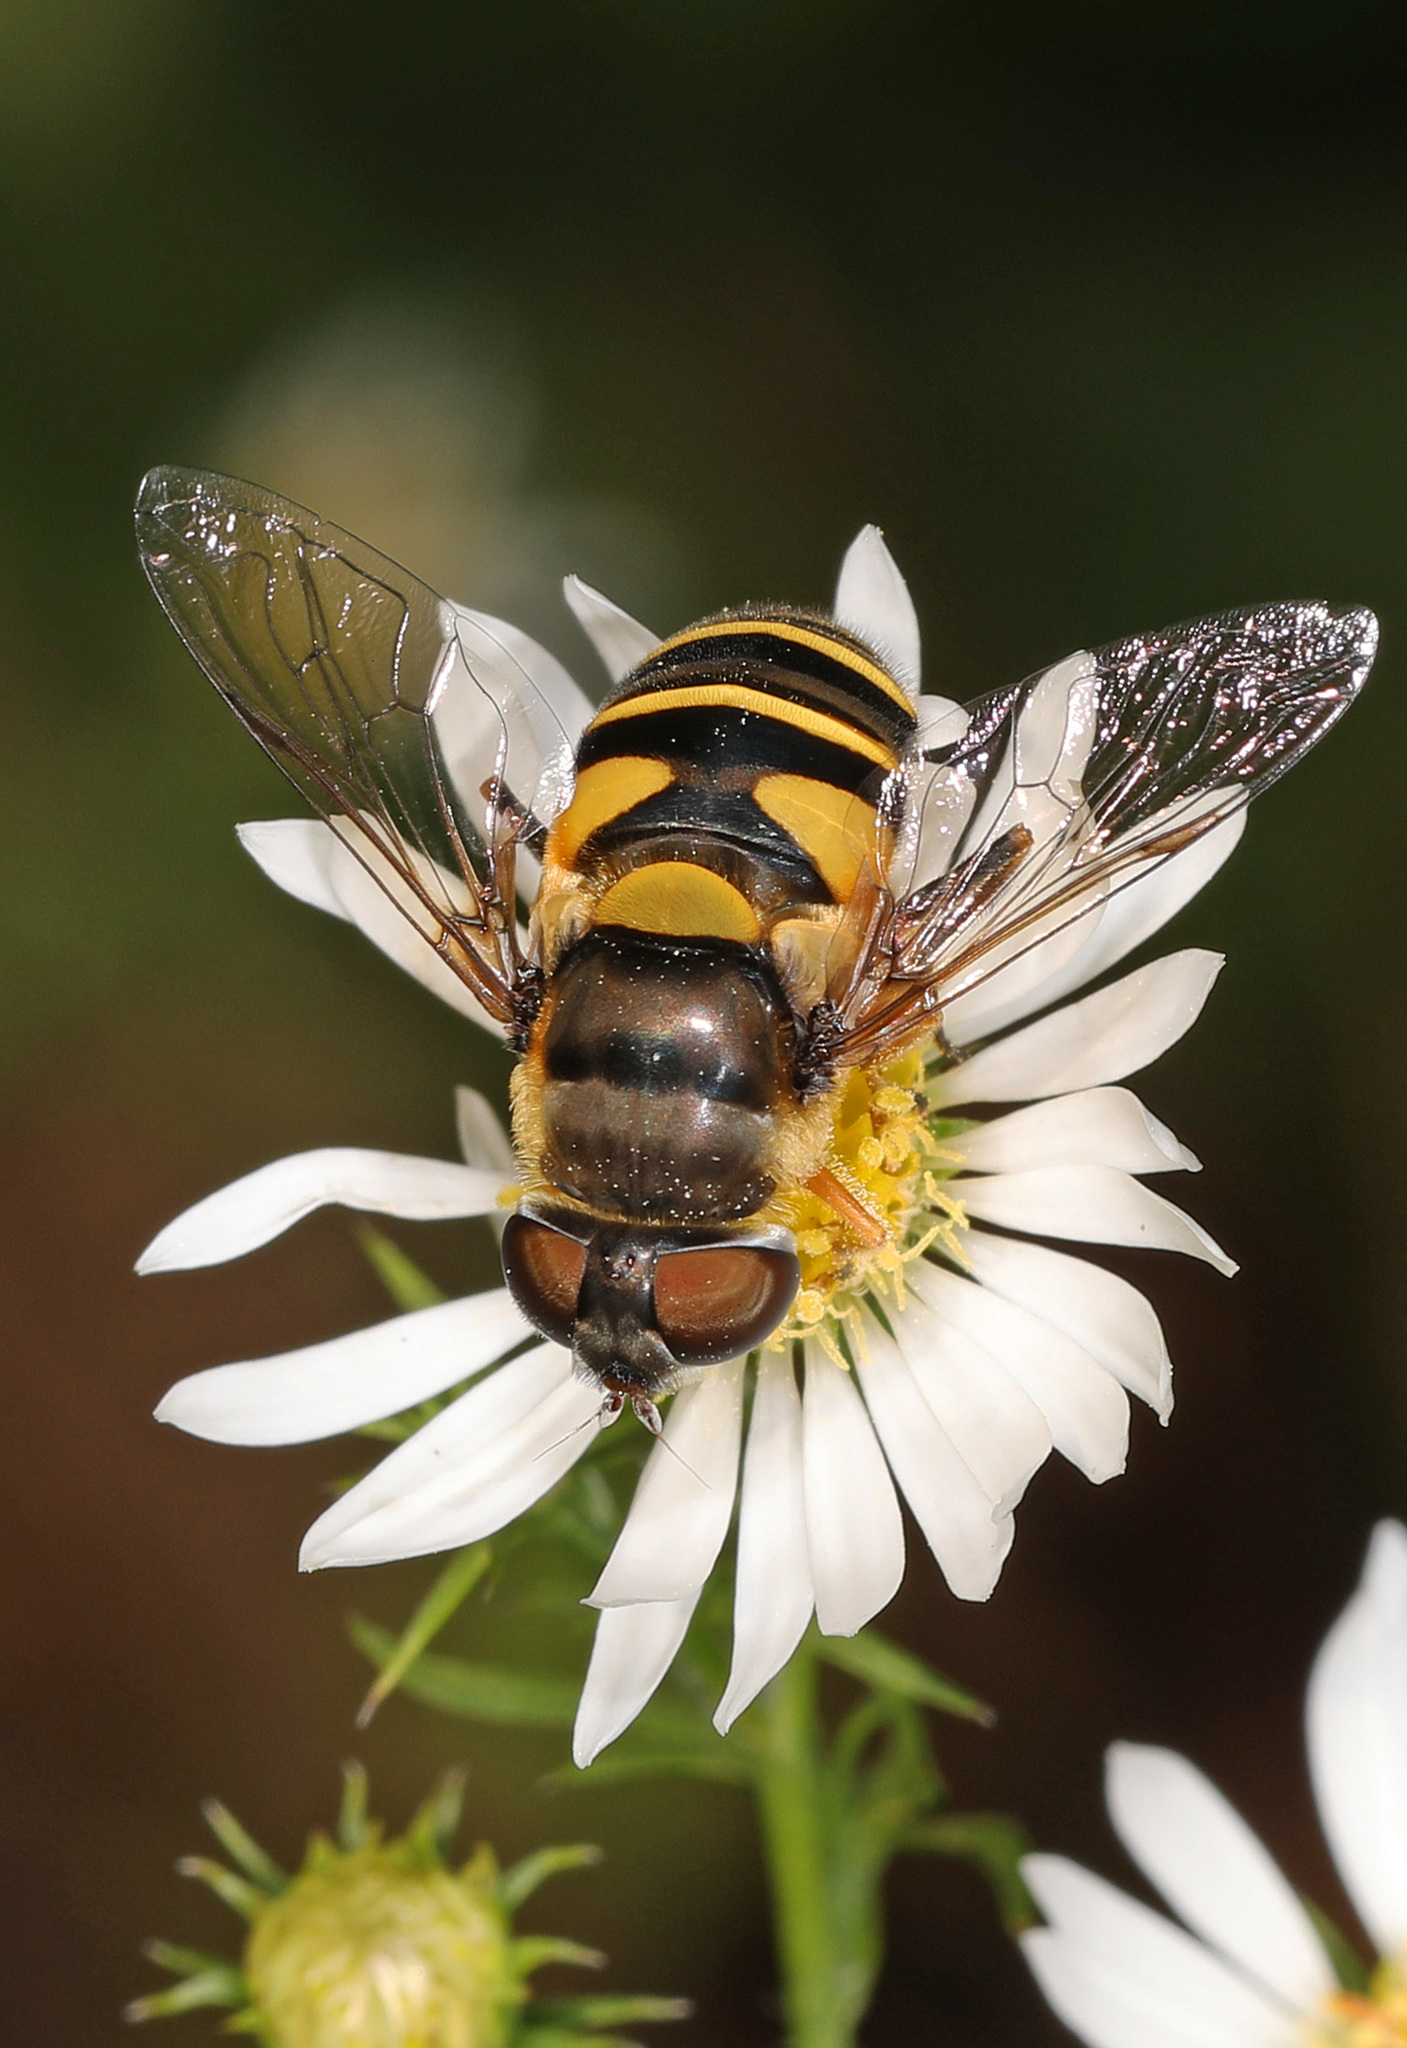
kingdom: Animalia
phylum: Arthropoda
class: Insecta
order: Diptera
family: Syrphidae
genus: Eristalis
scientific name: Eristalis transversa
